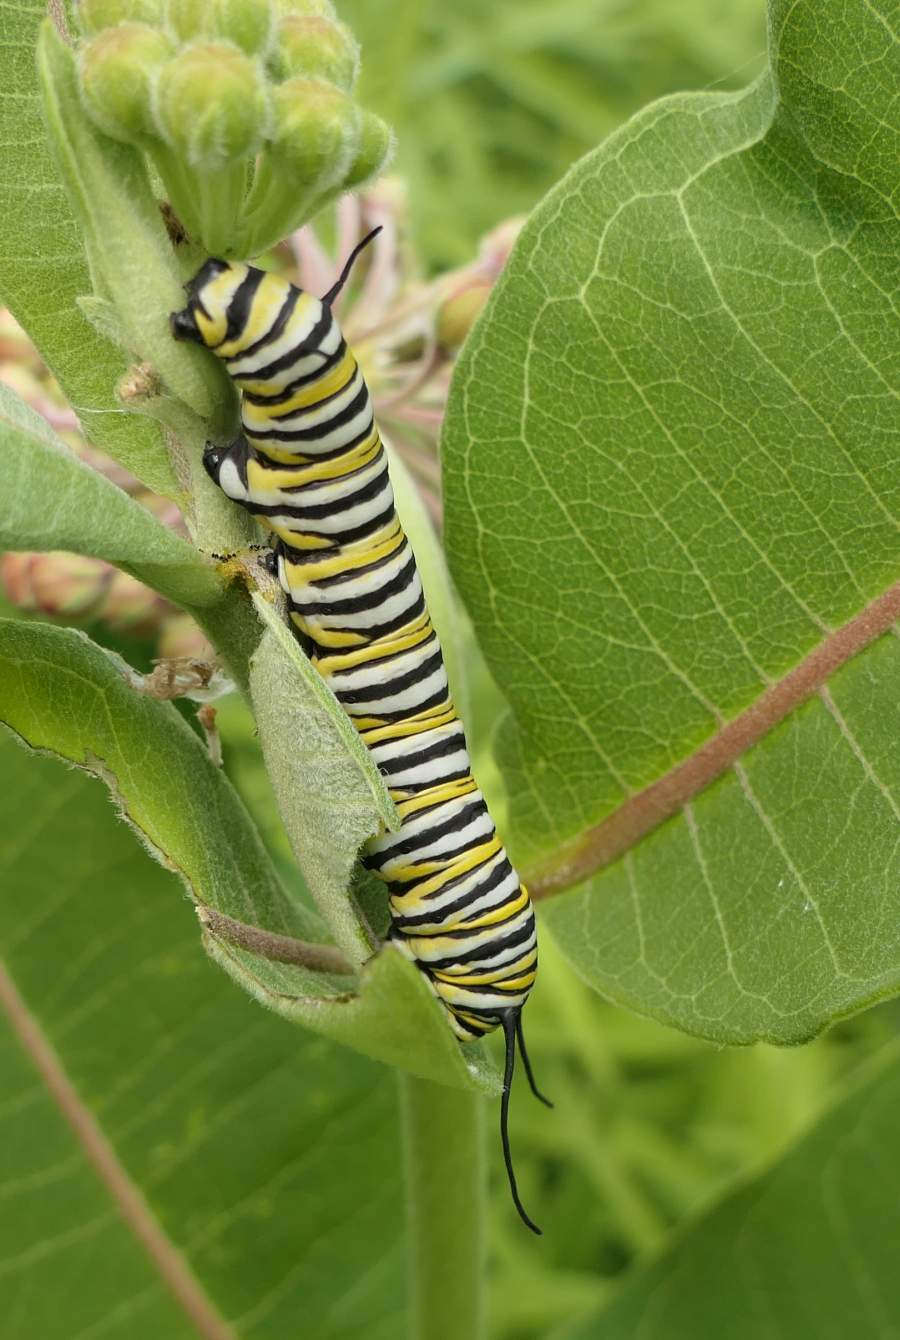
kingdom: Animalia
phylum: Arthropoda
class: Insecta
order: Lepidoptera
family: Nymphalidae
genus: Danaus
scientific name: Danaus plexippus
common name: Monarch
